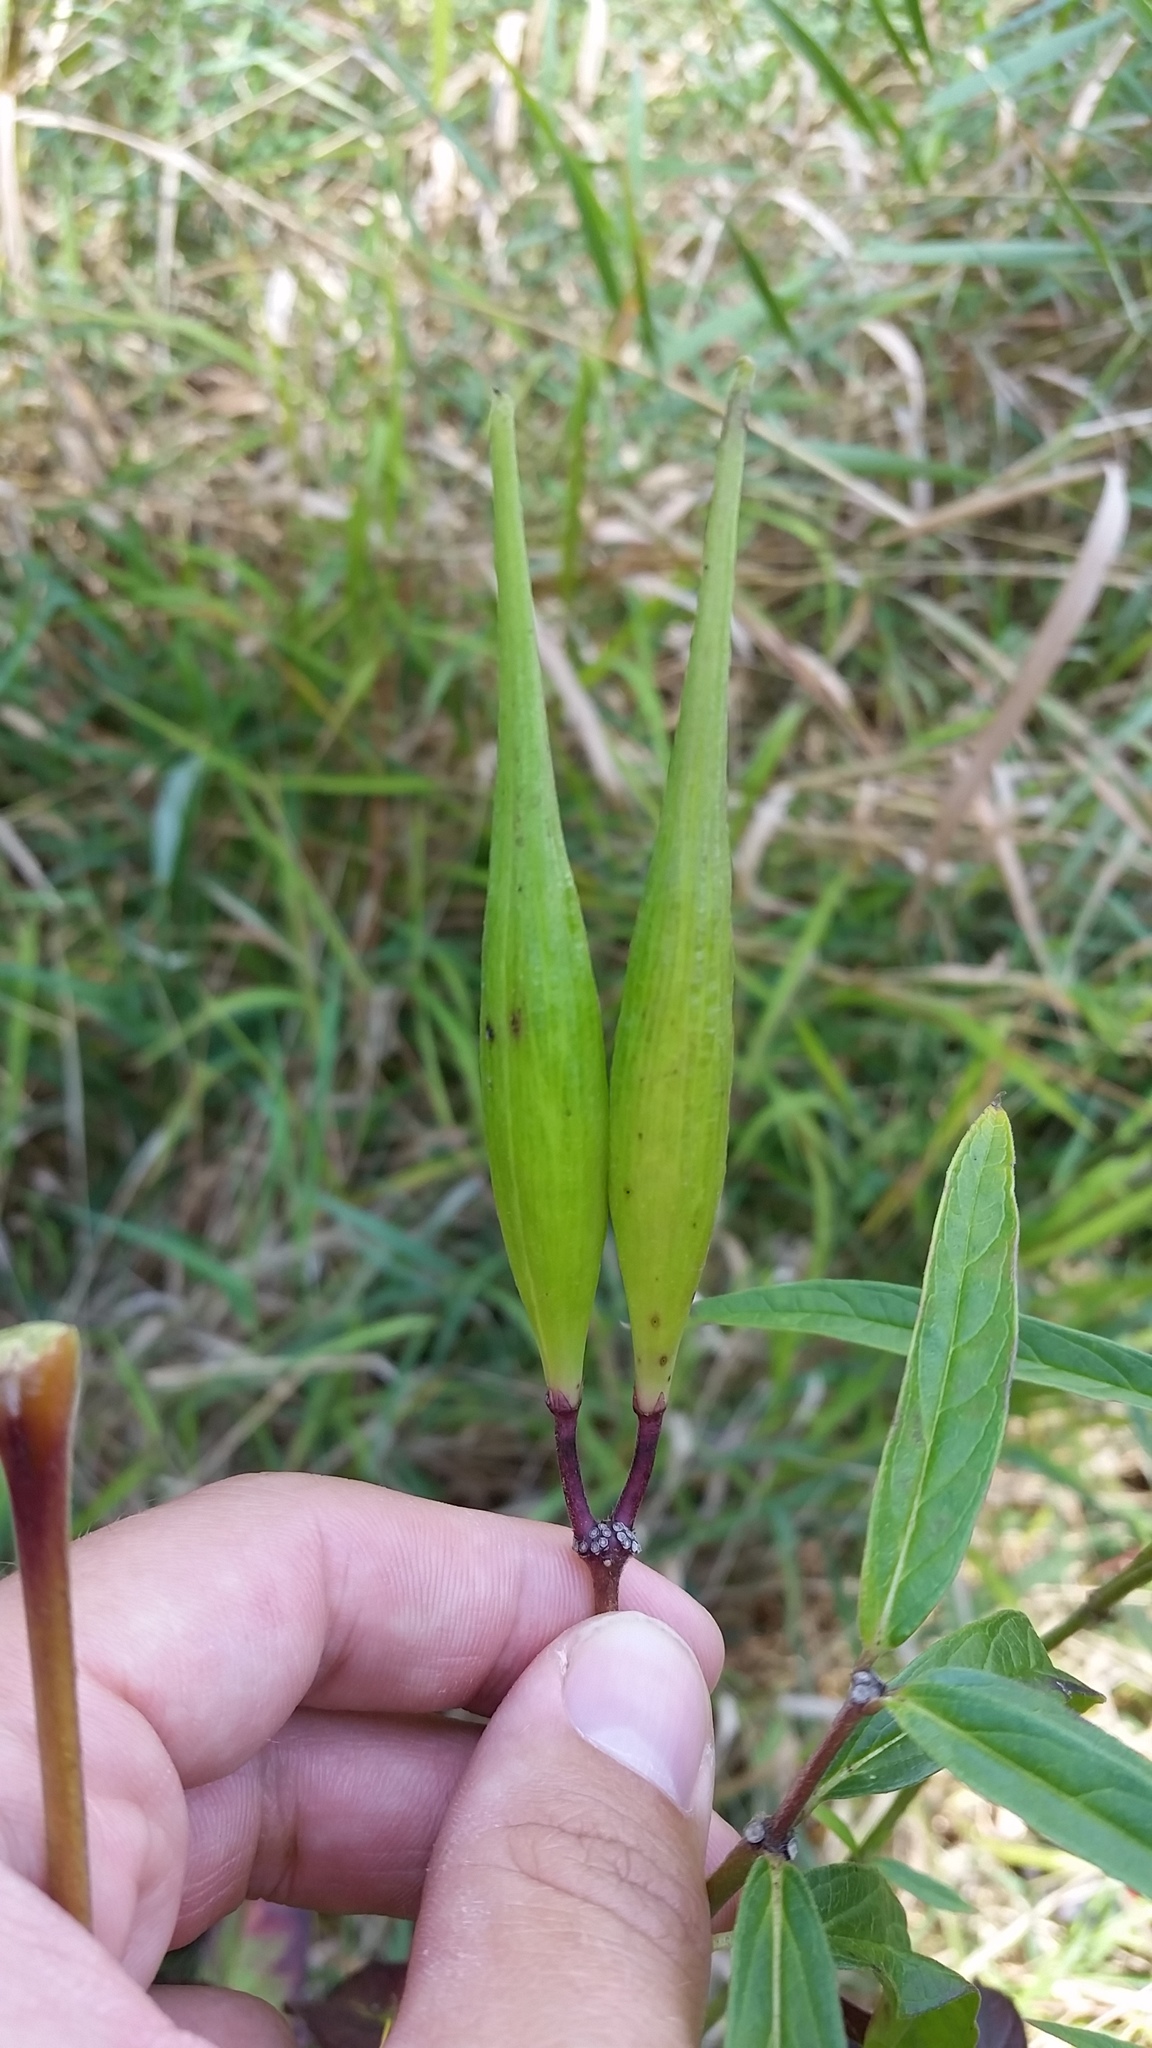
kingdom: Plantae
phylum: Tracheophyta
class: Magnoliopsida
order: Gentianales
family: Apocynaceae
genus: Asclepias
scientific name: Asclepias incarnata
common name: Swamp milkweed
